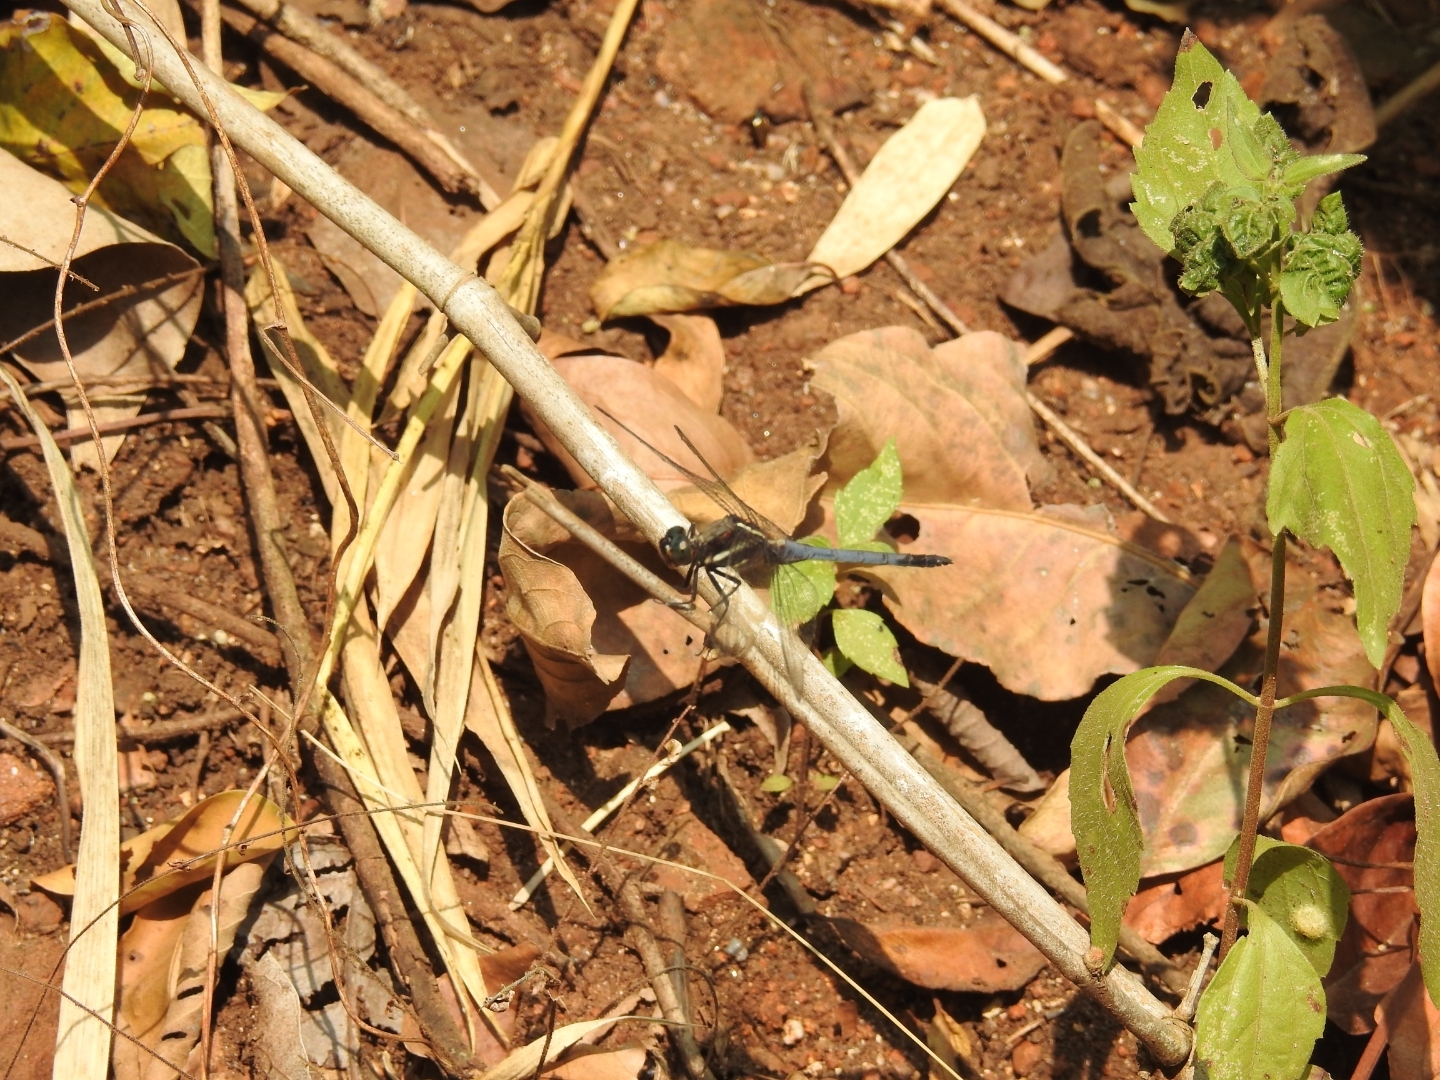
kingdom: Animalia
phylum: Arthropoda
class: Insecta
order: Odonata
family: Libellulidae
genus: Orthetrum
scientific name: Orthetrum glaucum
